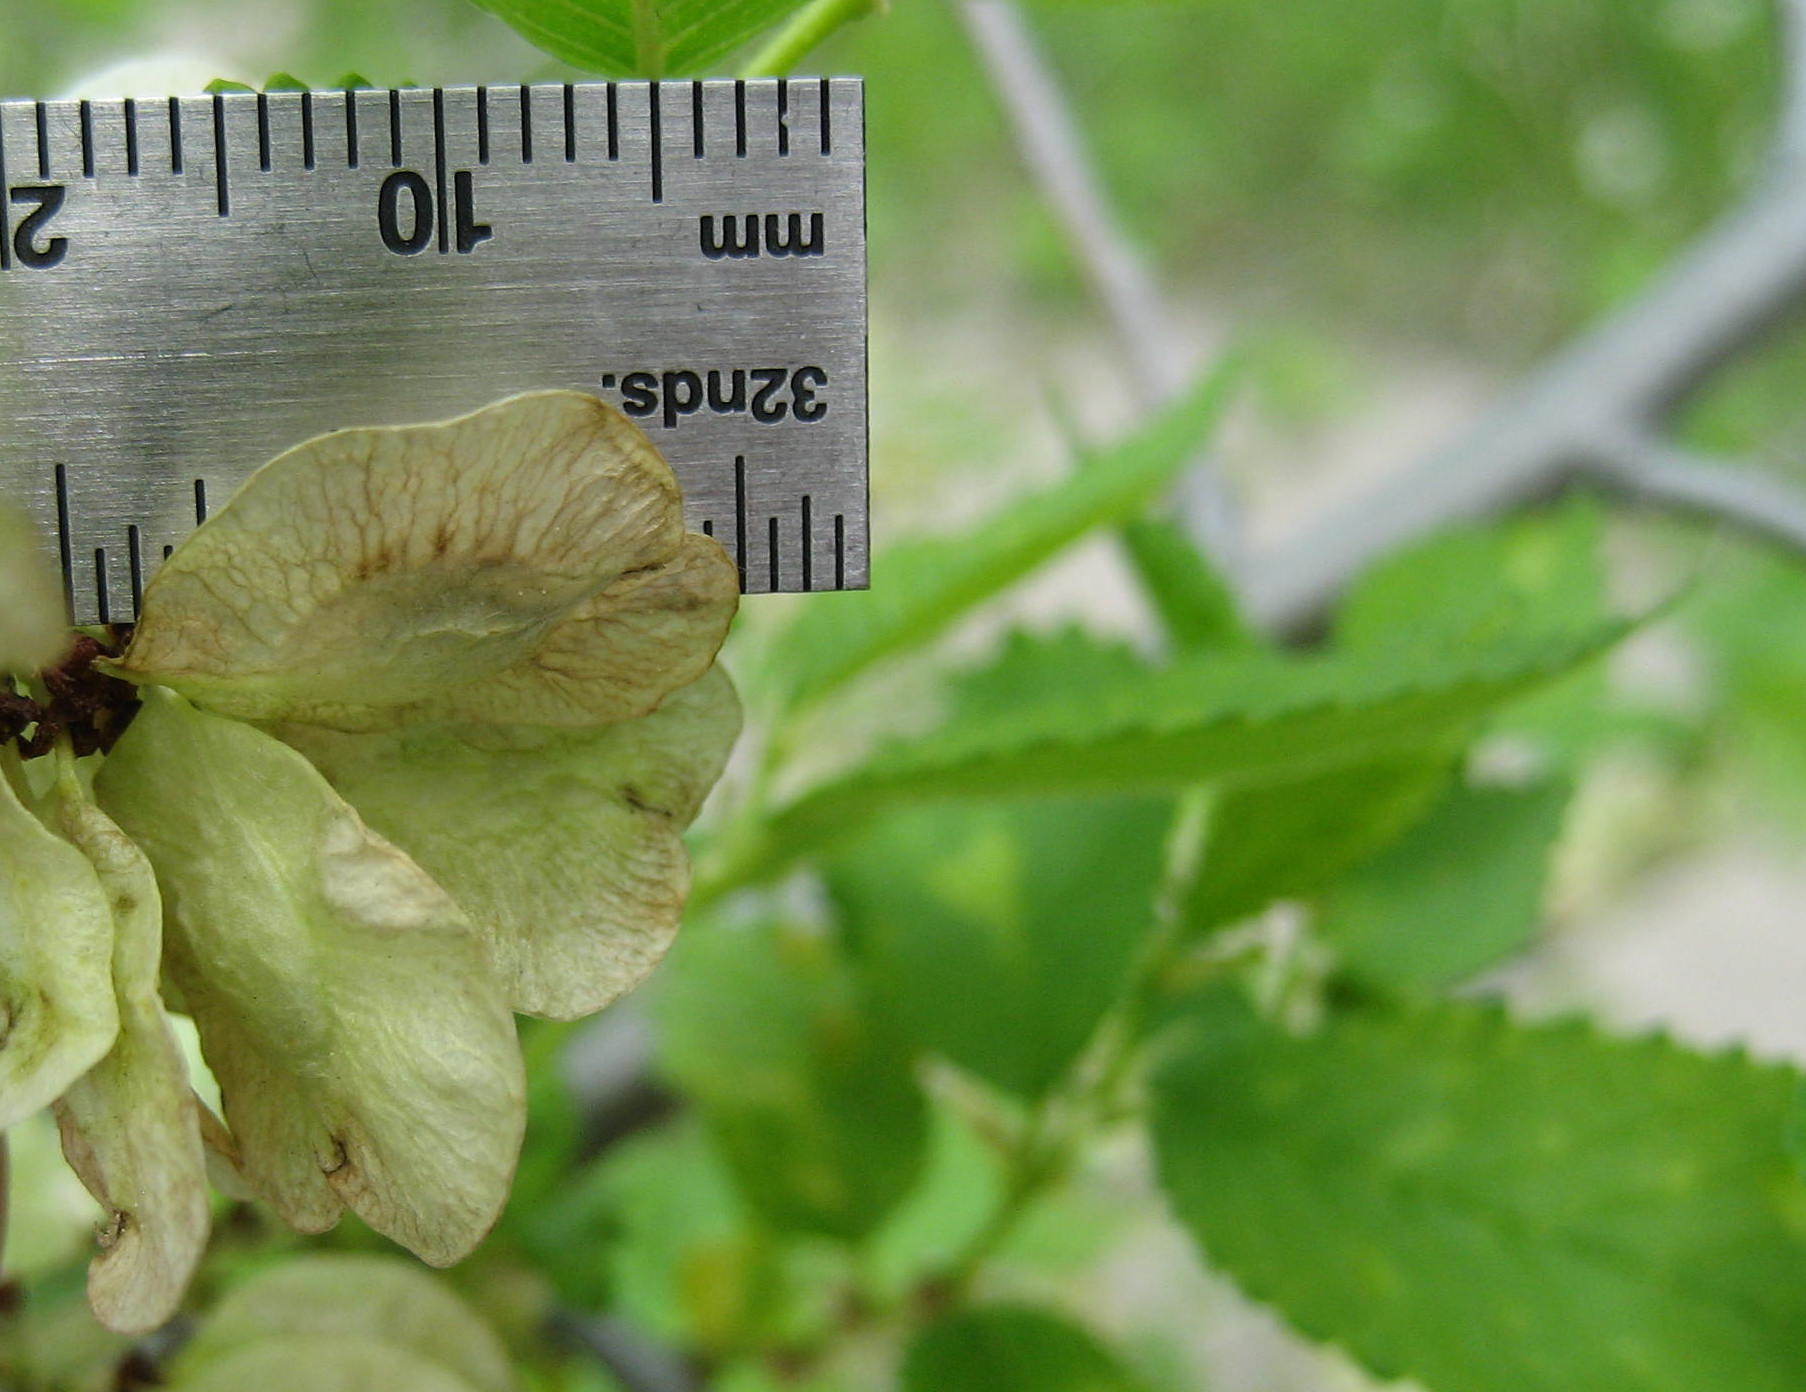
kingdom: Plantae
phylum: Tracheophyta
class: Magnoliopsida
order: Rosales
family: Ulmaceae
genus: Ulmus
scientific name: Ulmus pumila
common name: Siberian elm
